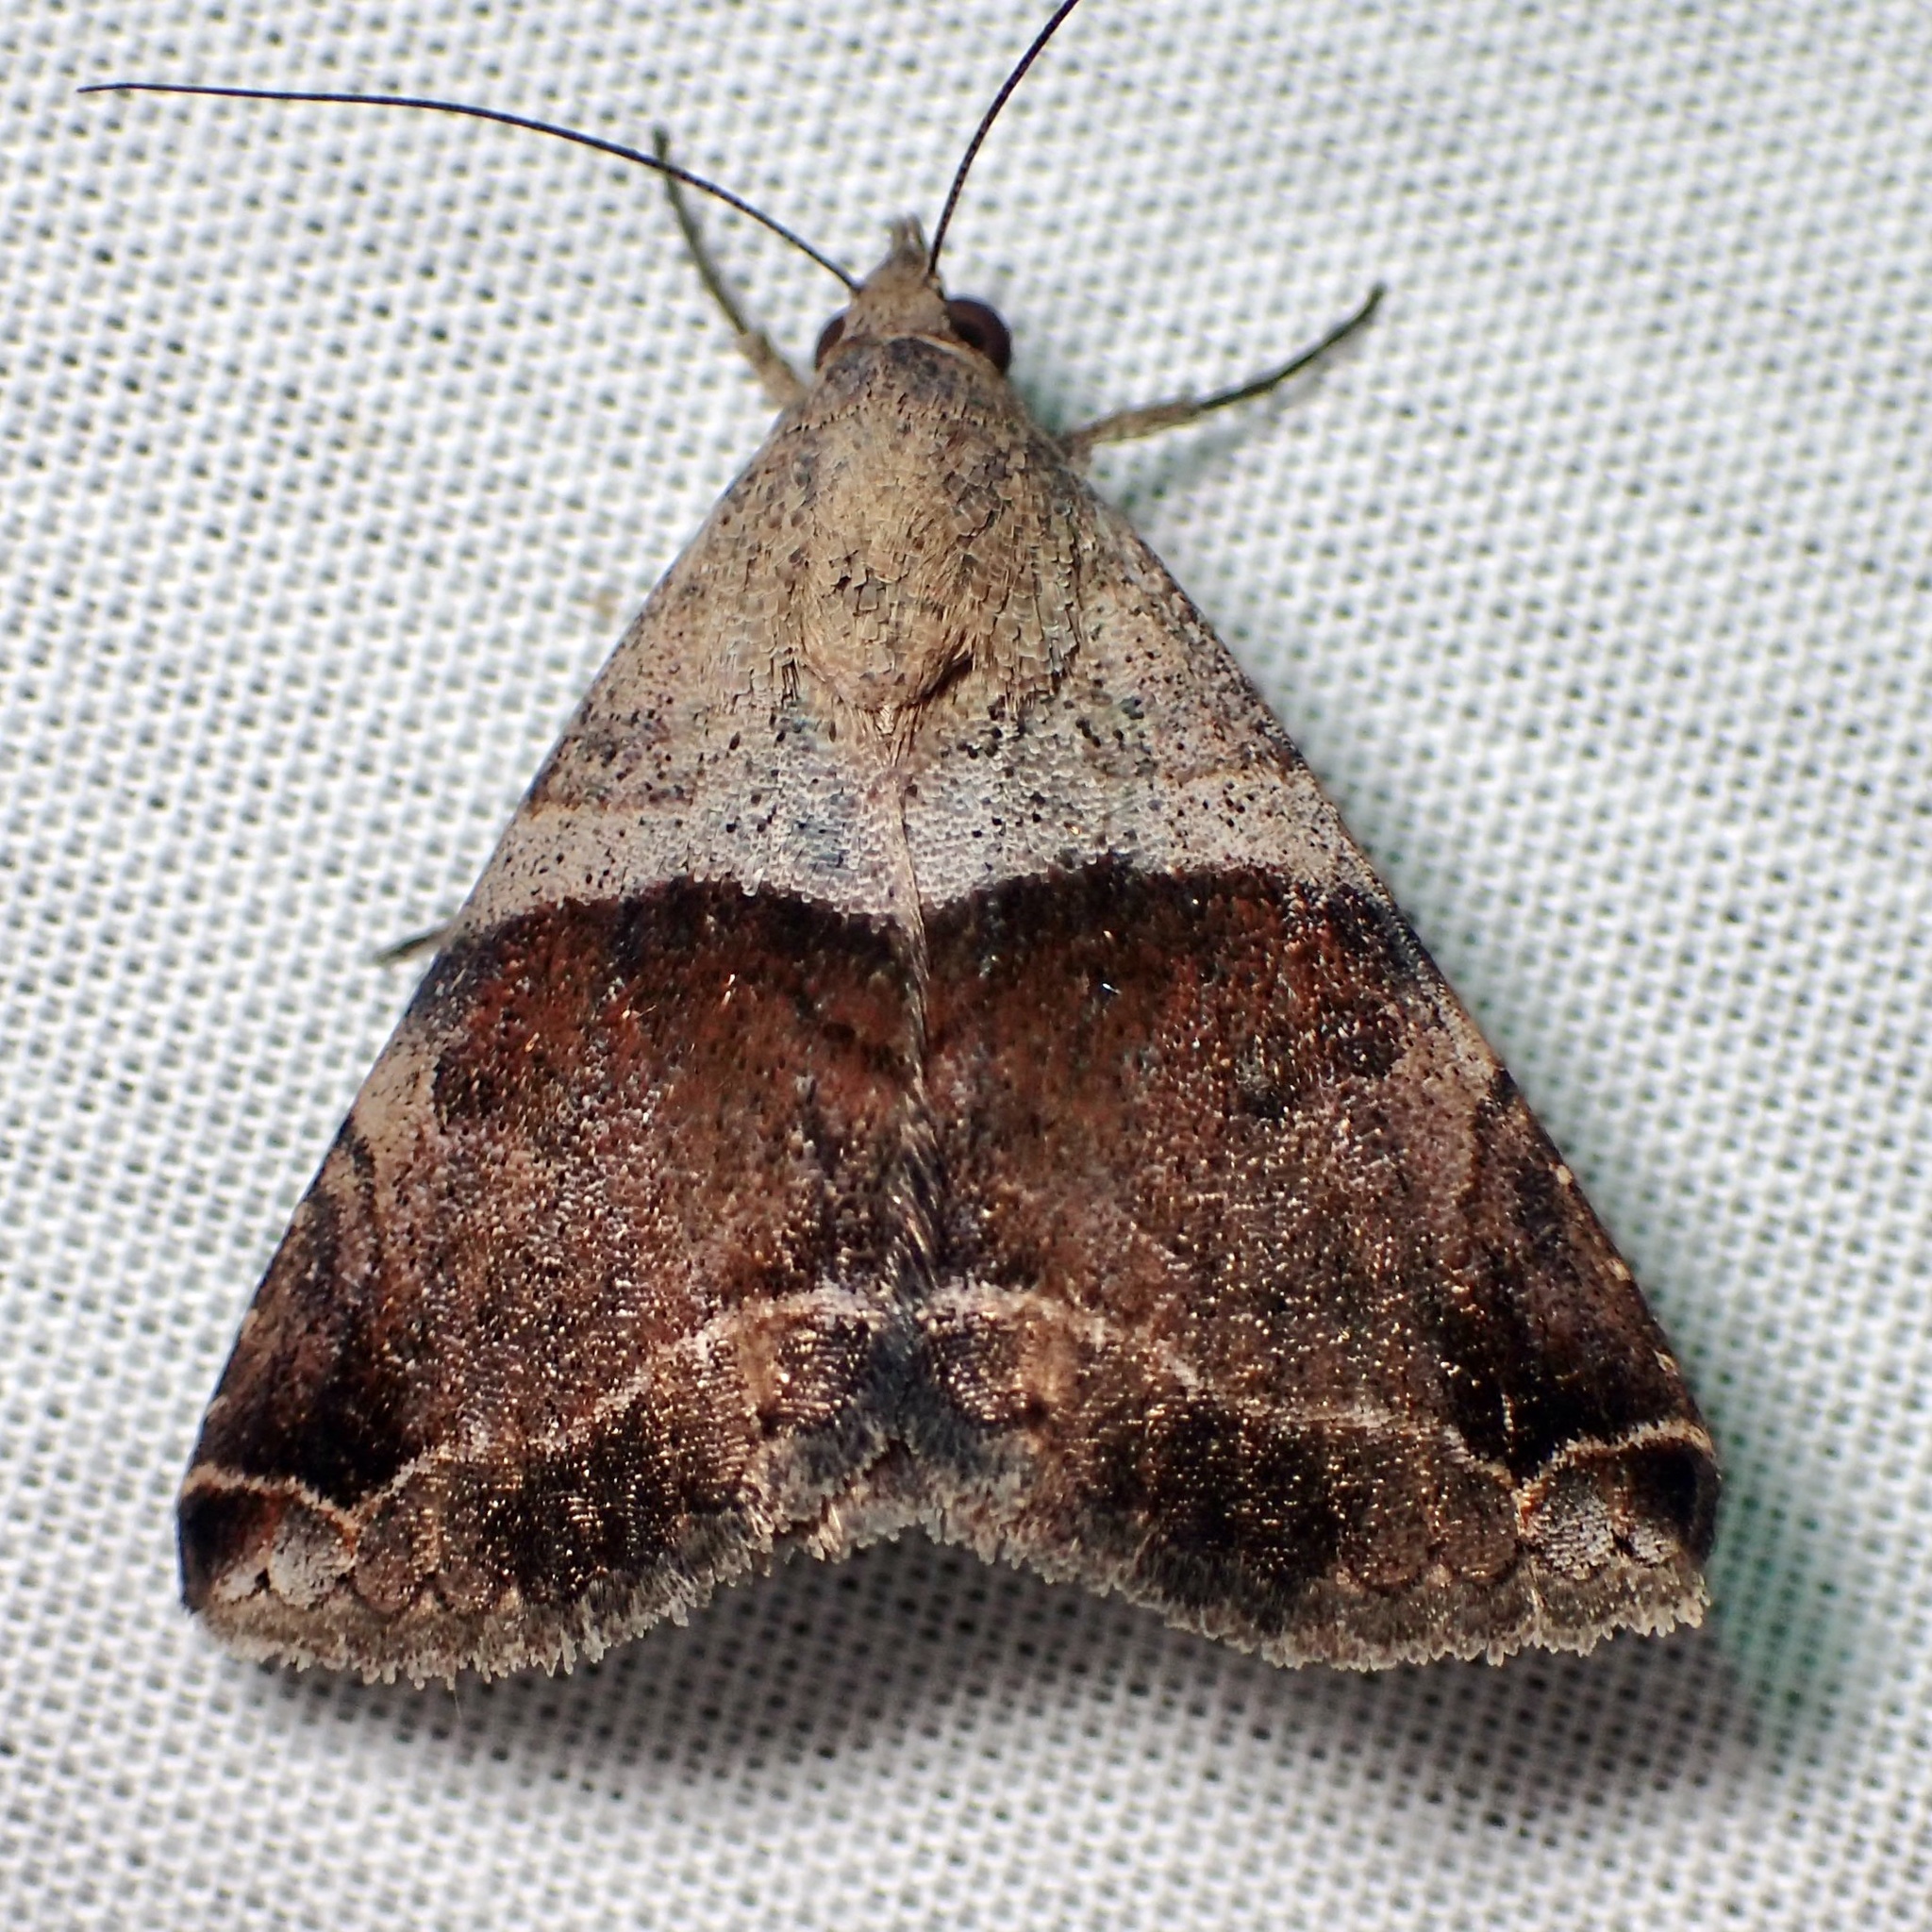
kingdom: Animalia
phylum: Arthropoda
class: Insecta
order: Lepidoptera
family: Erebidae
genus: Panula
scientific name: Panula inconstans
